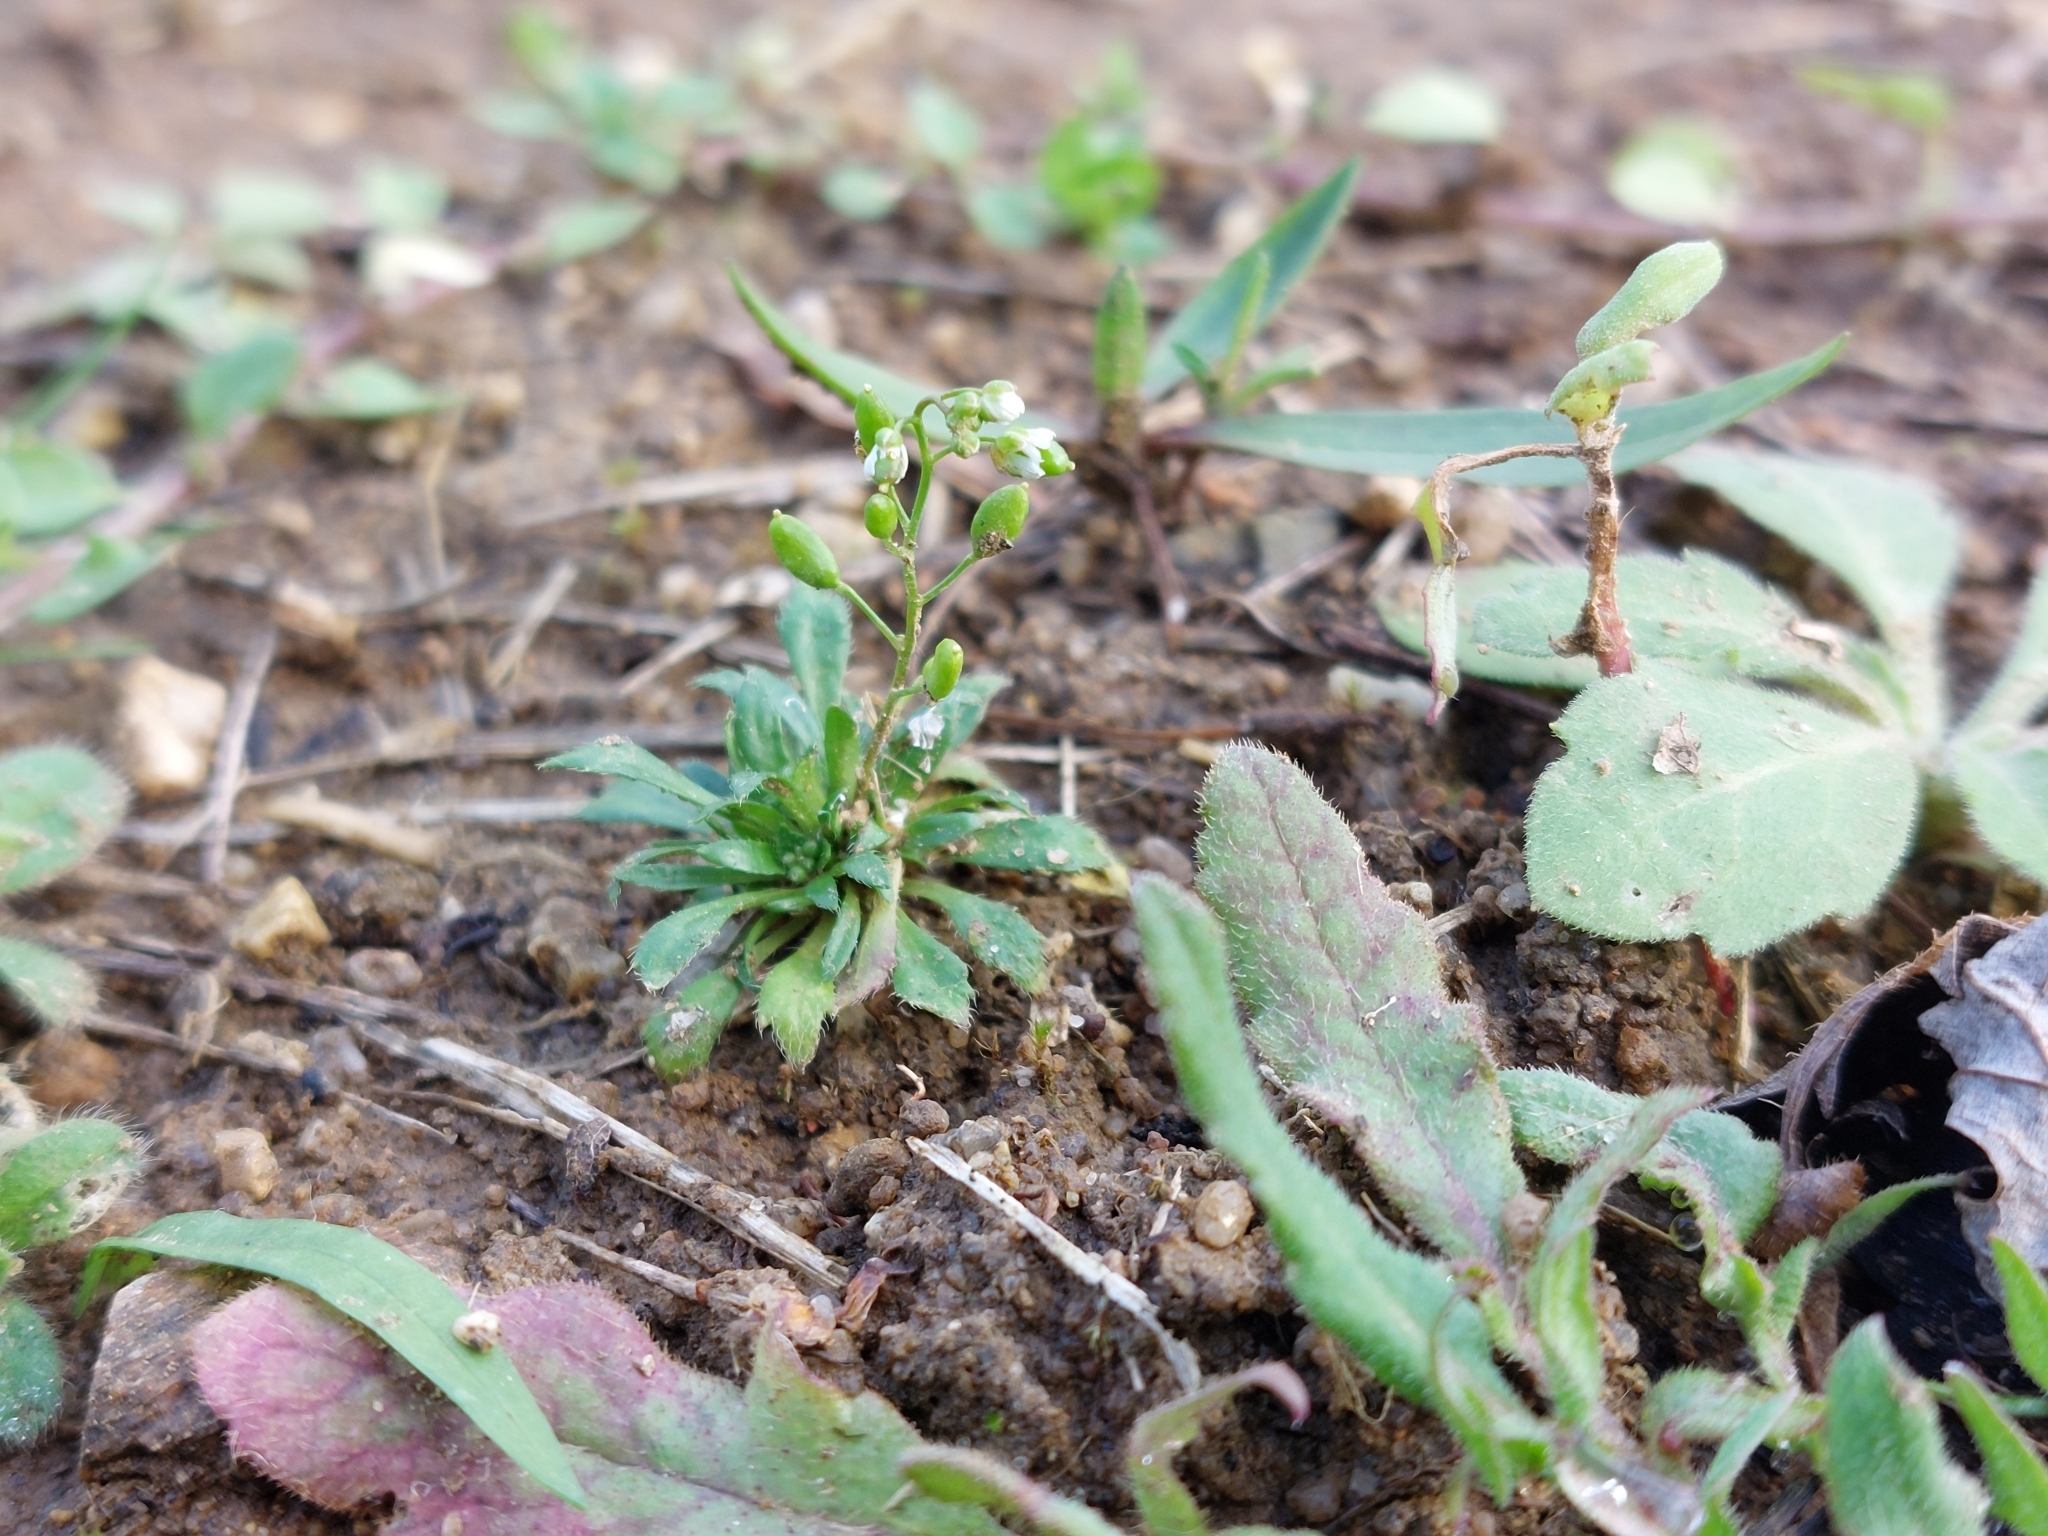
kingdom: Plantae
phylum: Tracheophyta
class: Magnoliopsida
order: Brassicales
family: Brassicaceae
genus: Draba
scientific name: Draba verna
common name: Spring draba
